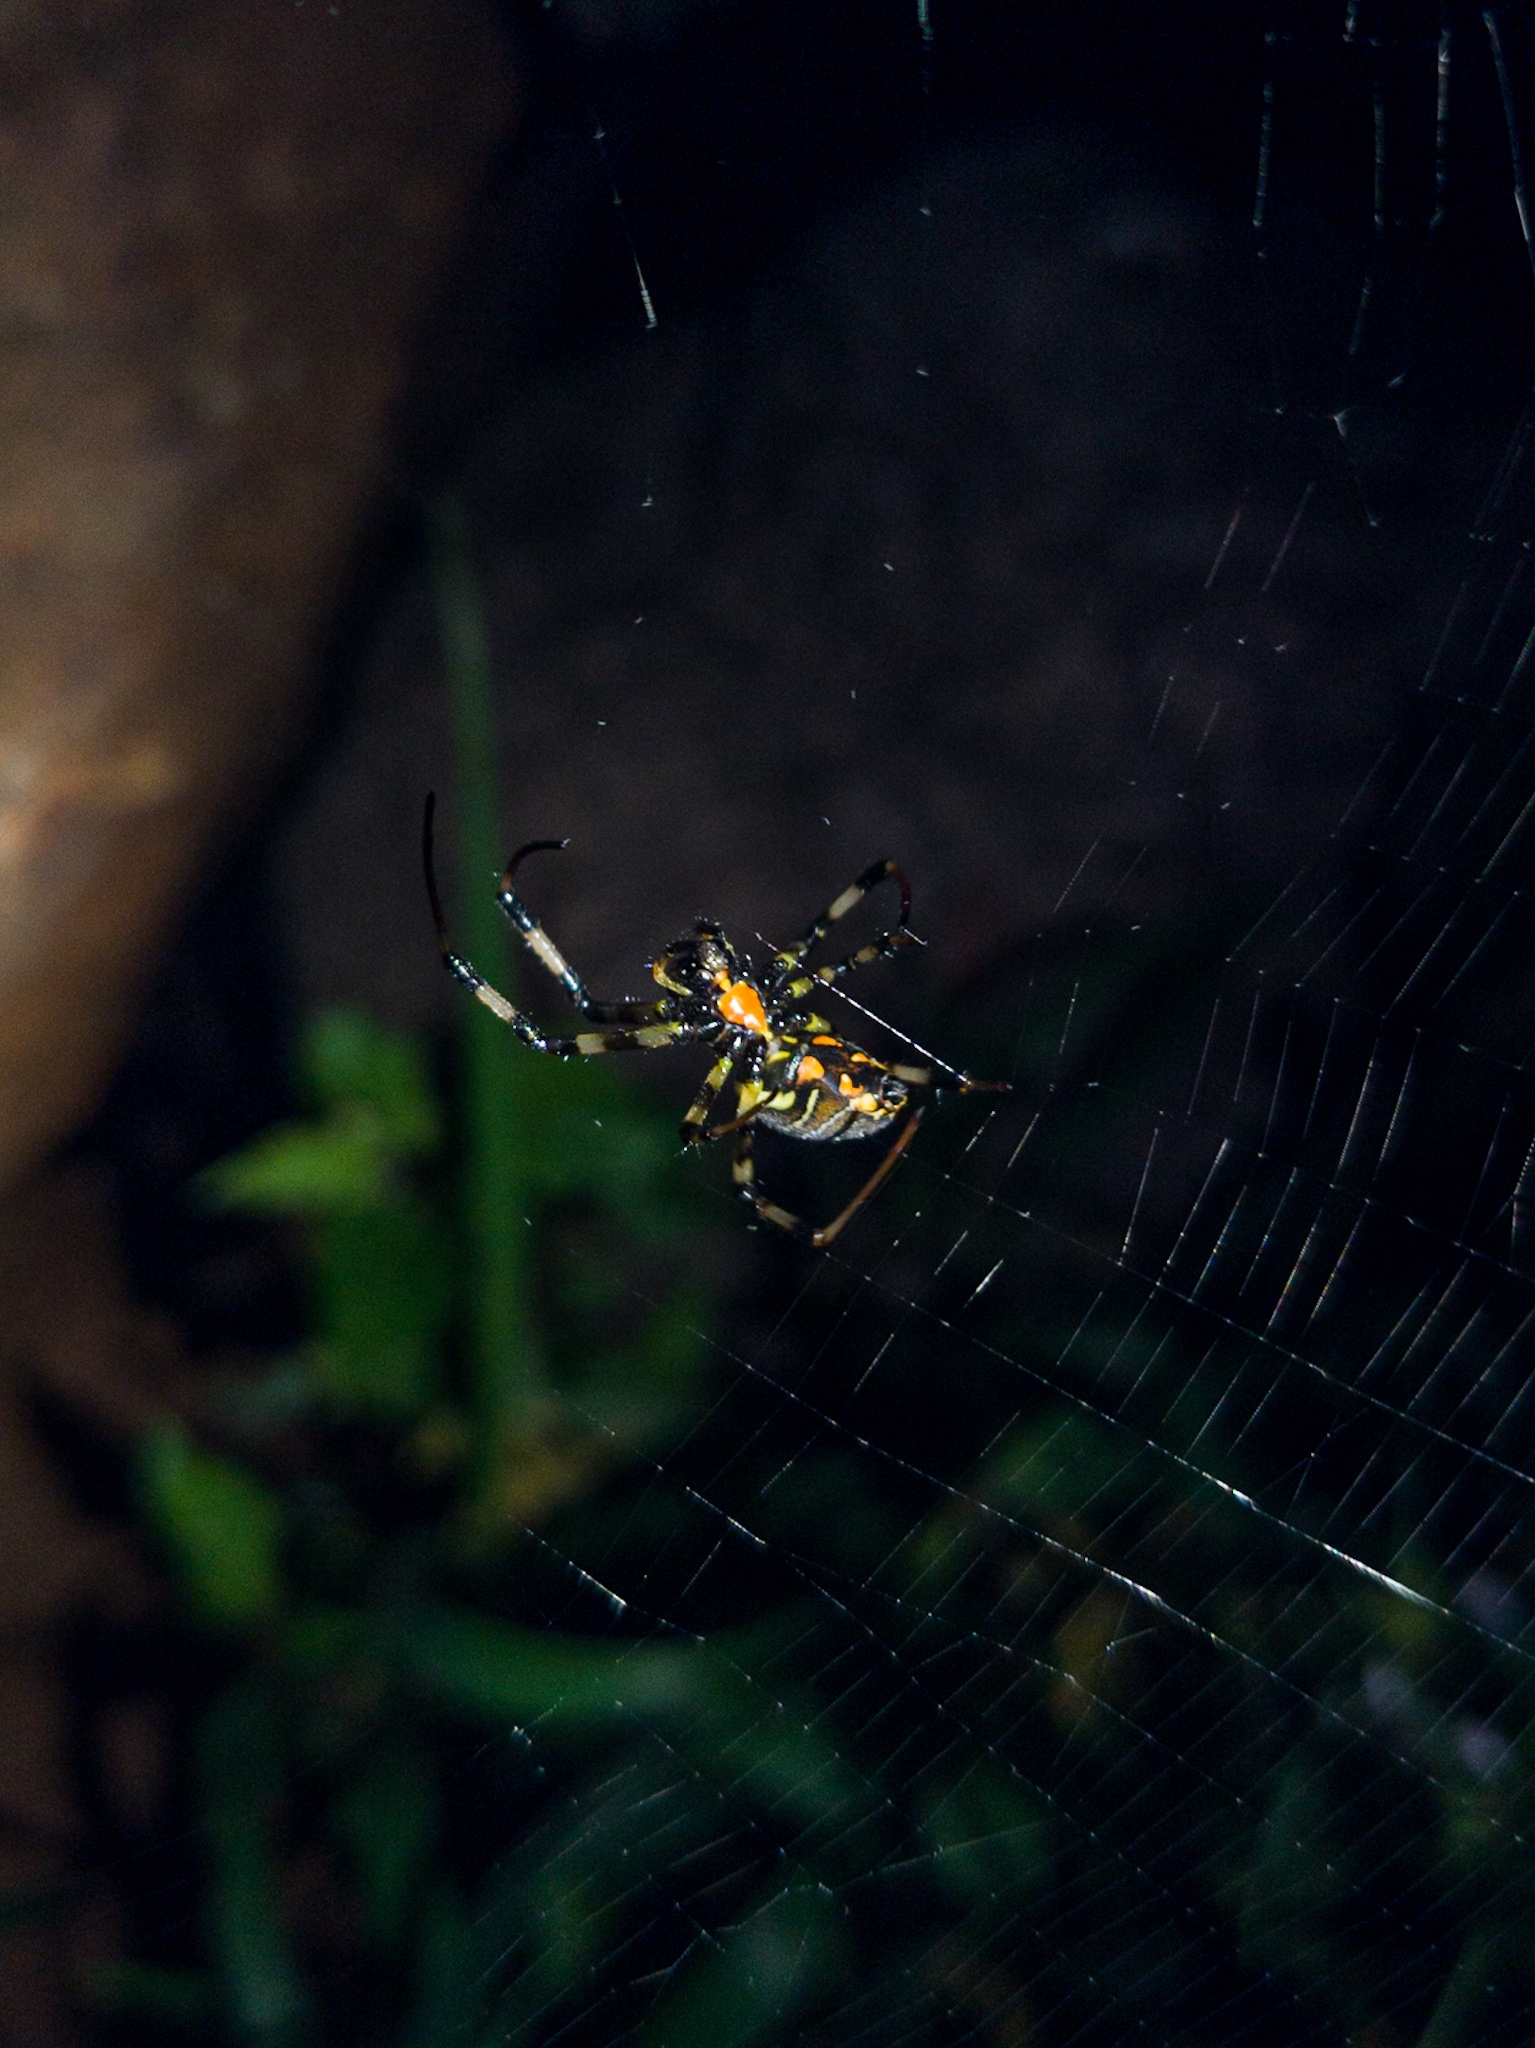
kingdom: Animalia
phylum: Arthropoda
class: Arachnida
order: Araneae
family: Araneidae
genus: Nephilengys
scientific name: Nephilengys malabarensis
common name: Asian hermit spider
